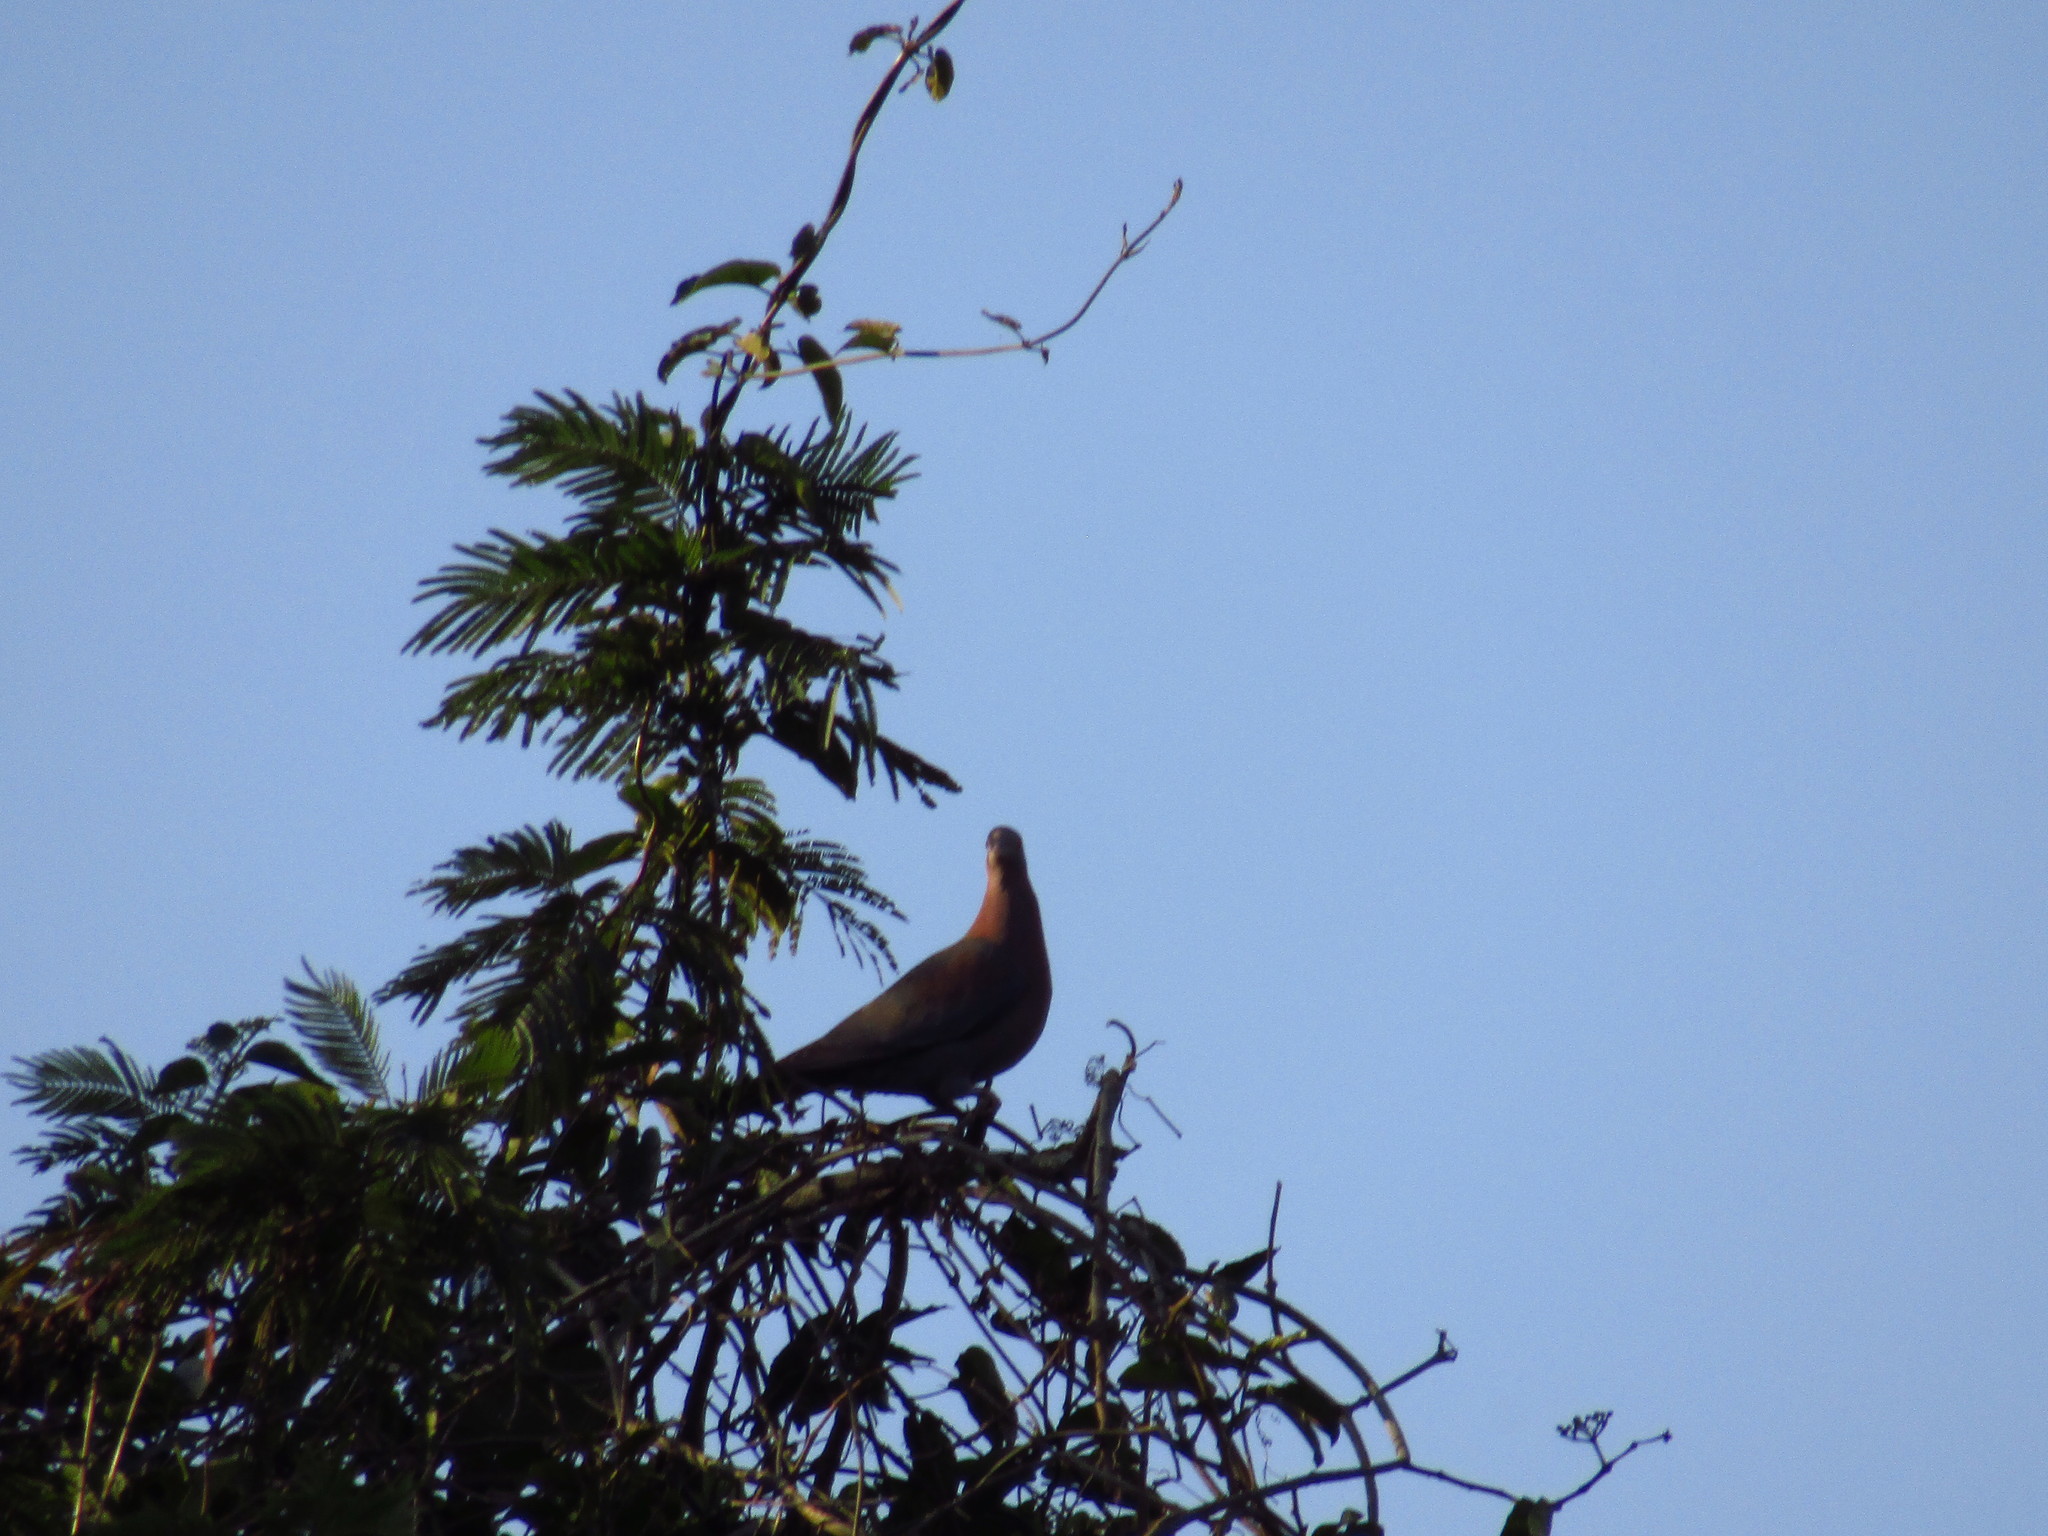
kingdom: Animalia
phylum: Chordata
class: Aves
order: Columbiformes
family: Columbidae
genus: Patagioenas
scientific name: Patagioenas flavirostris
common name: Red-billed pigeon
